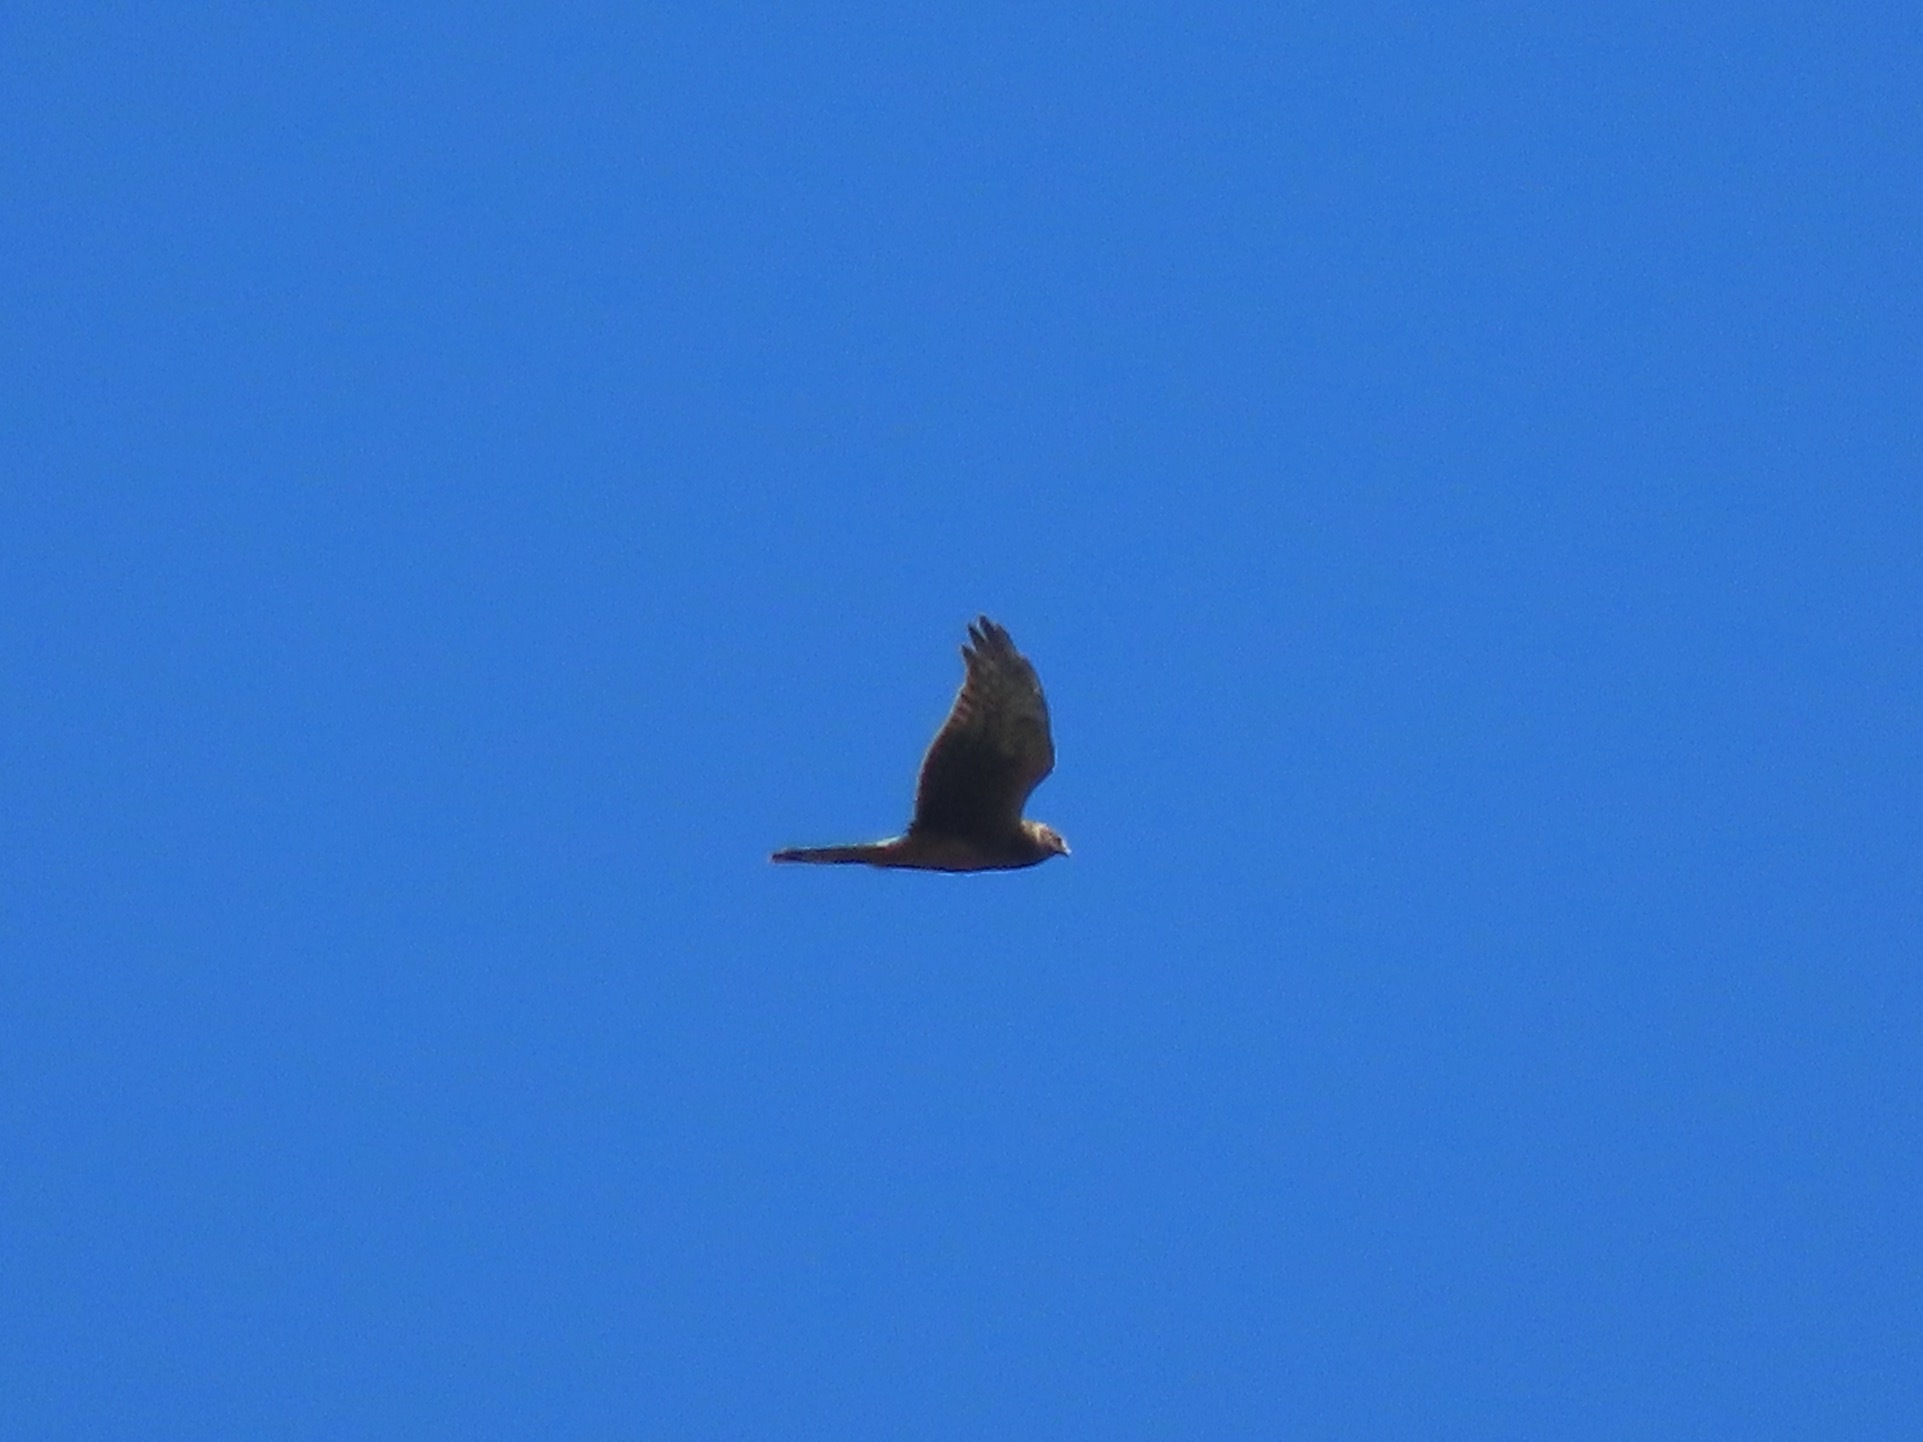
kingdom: Animalia
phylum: Chordata
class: Aves
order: Accipitriformes
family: Accipitridae
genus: Circus
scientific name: Circus cyaneus
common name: Hen harrier
